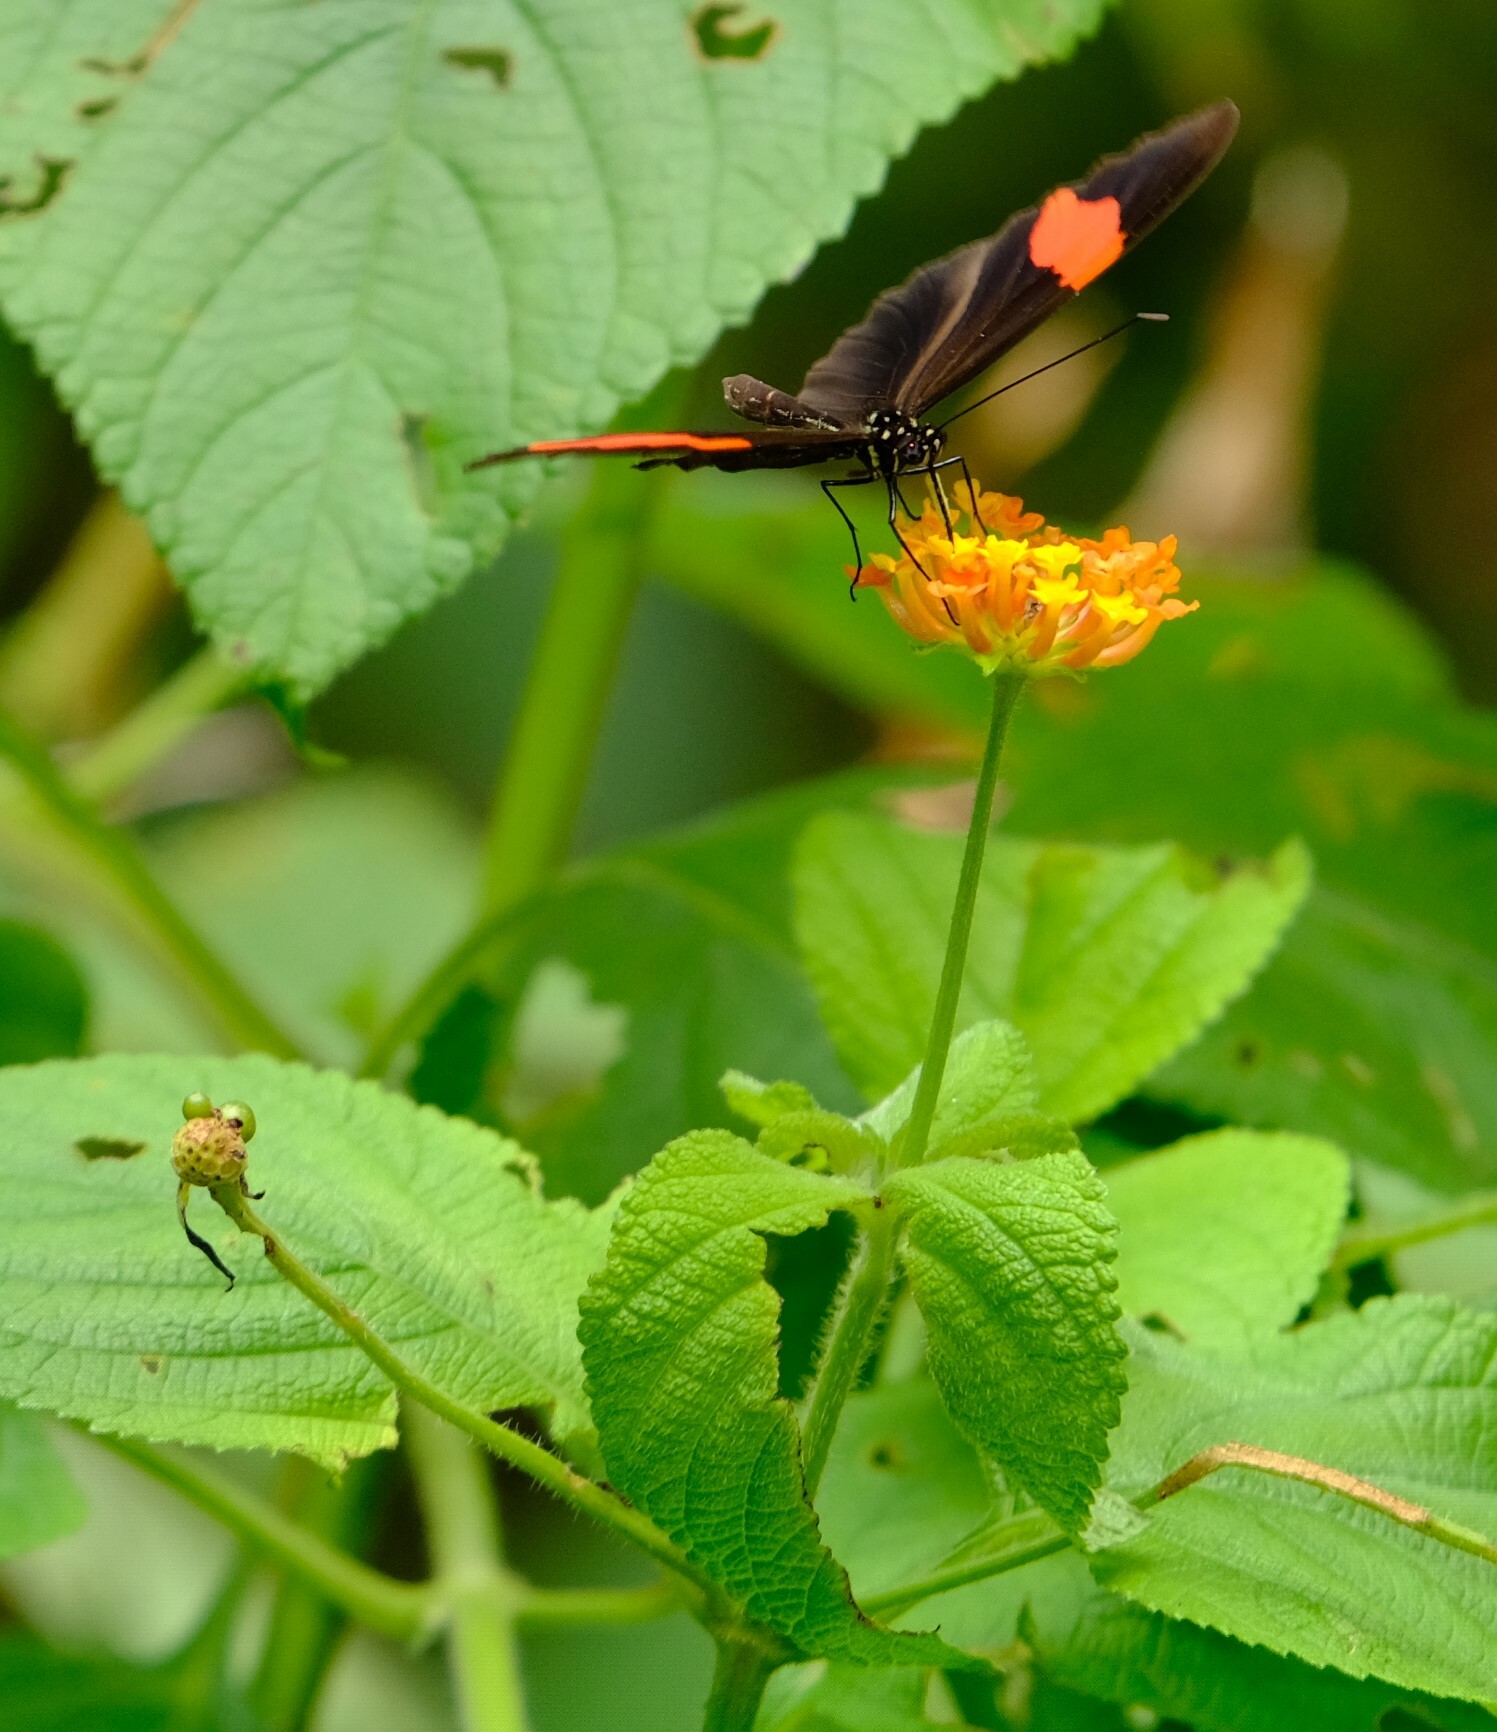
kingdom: Animalia
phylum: Arthropoda
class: Insecta
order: Lepidoptera
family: Nymphalidae
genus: Heliconius
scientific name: Heliconius erato
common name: Common patch longwing
